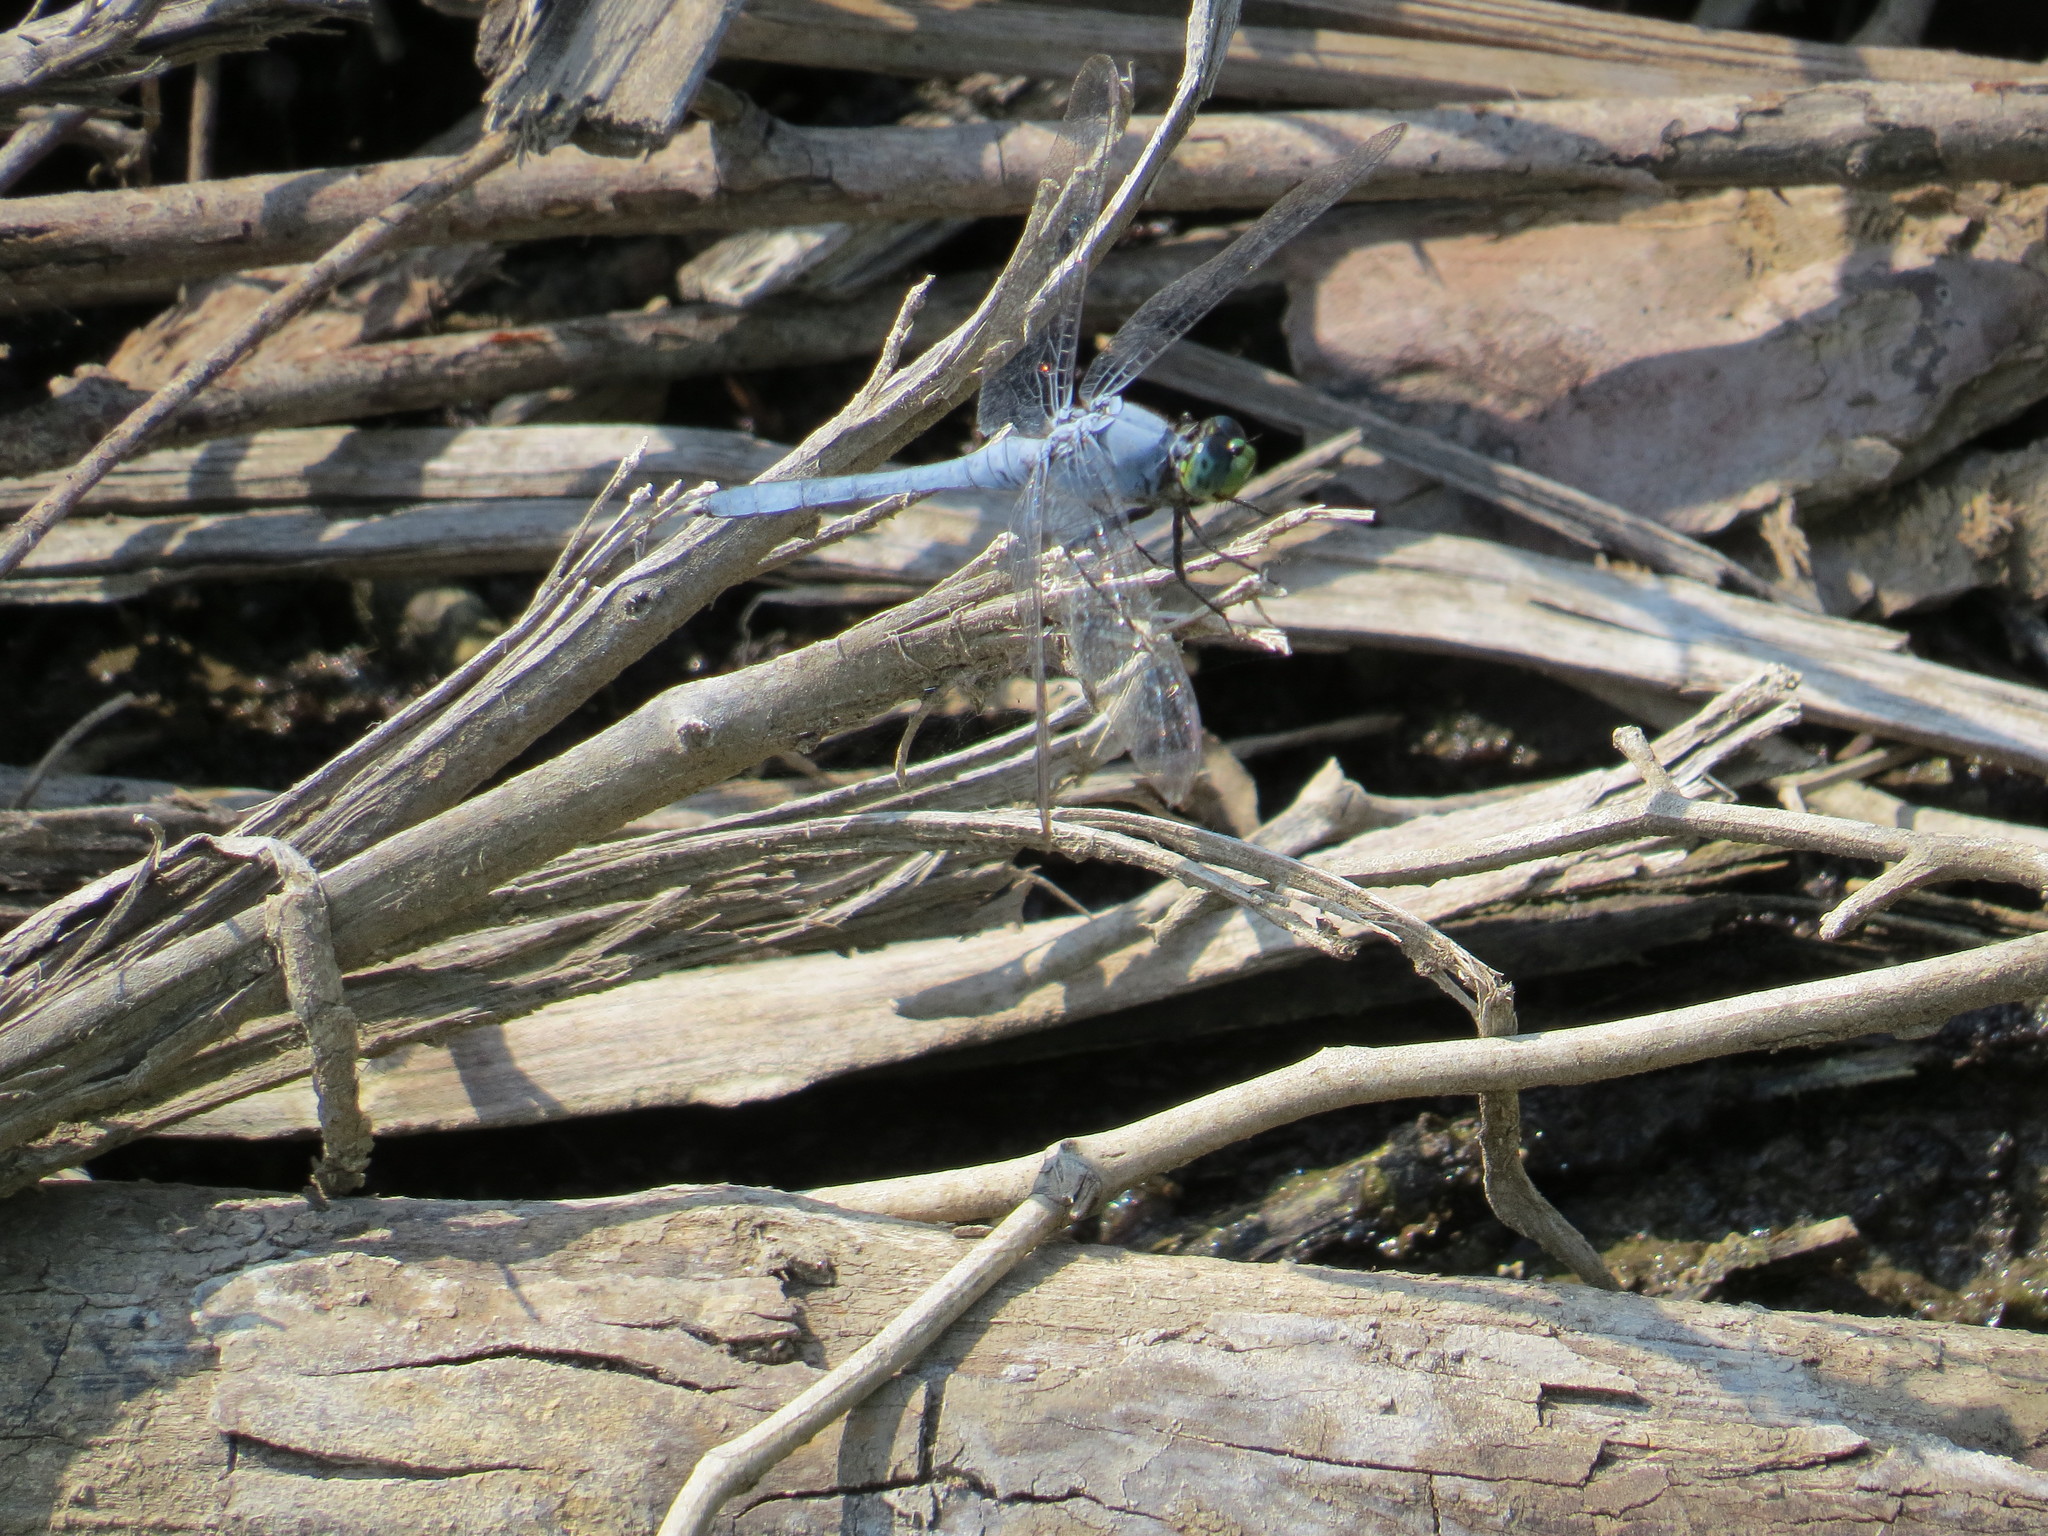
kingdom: Animalia
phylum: Arthropoda
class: Insecta
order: Odonata
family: Libellulidae
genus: Erythemis
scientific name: Erythemis simplicicollis
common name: Eastern pondhawk
